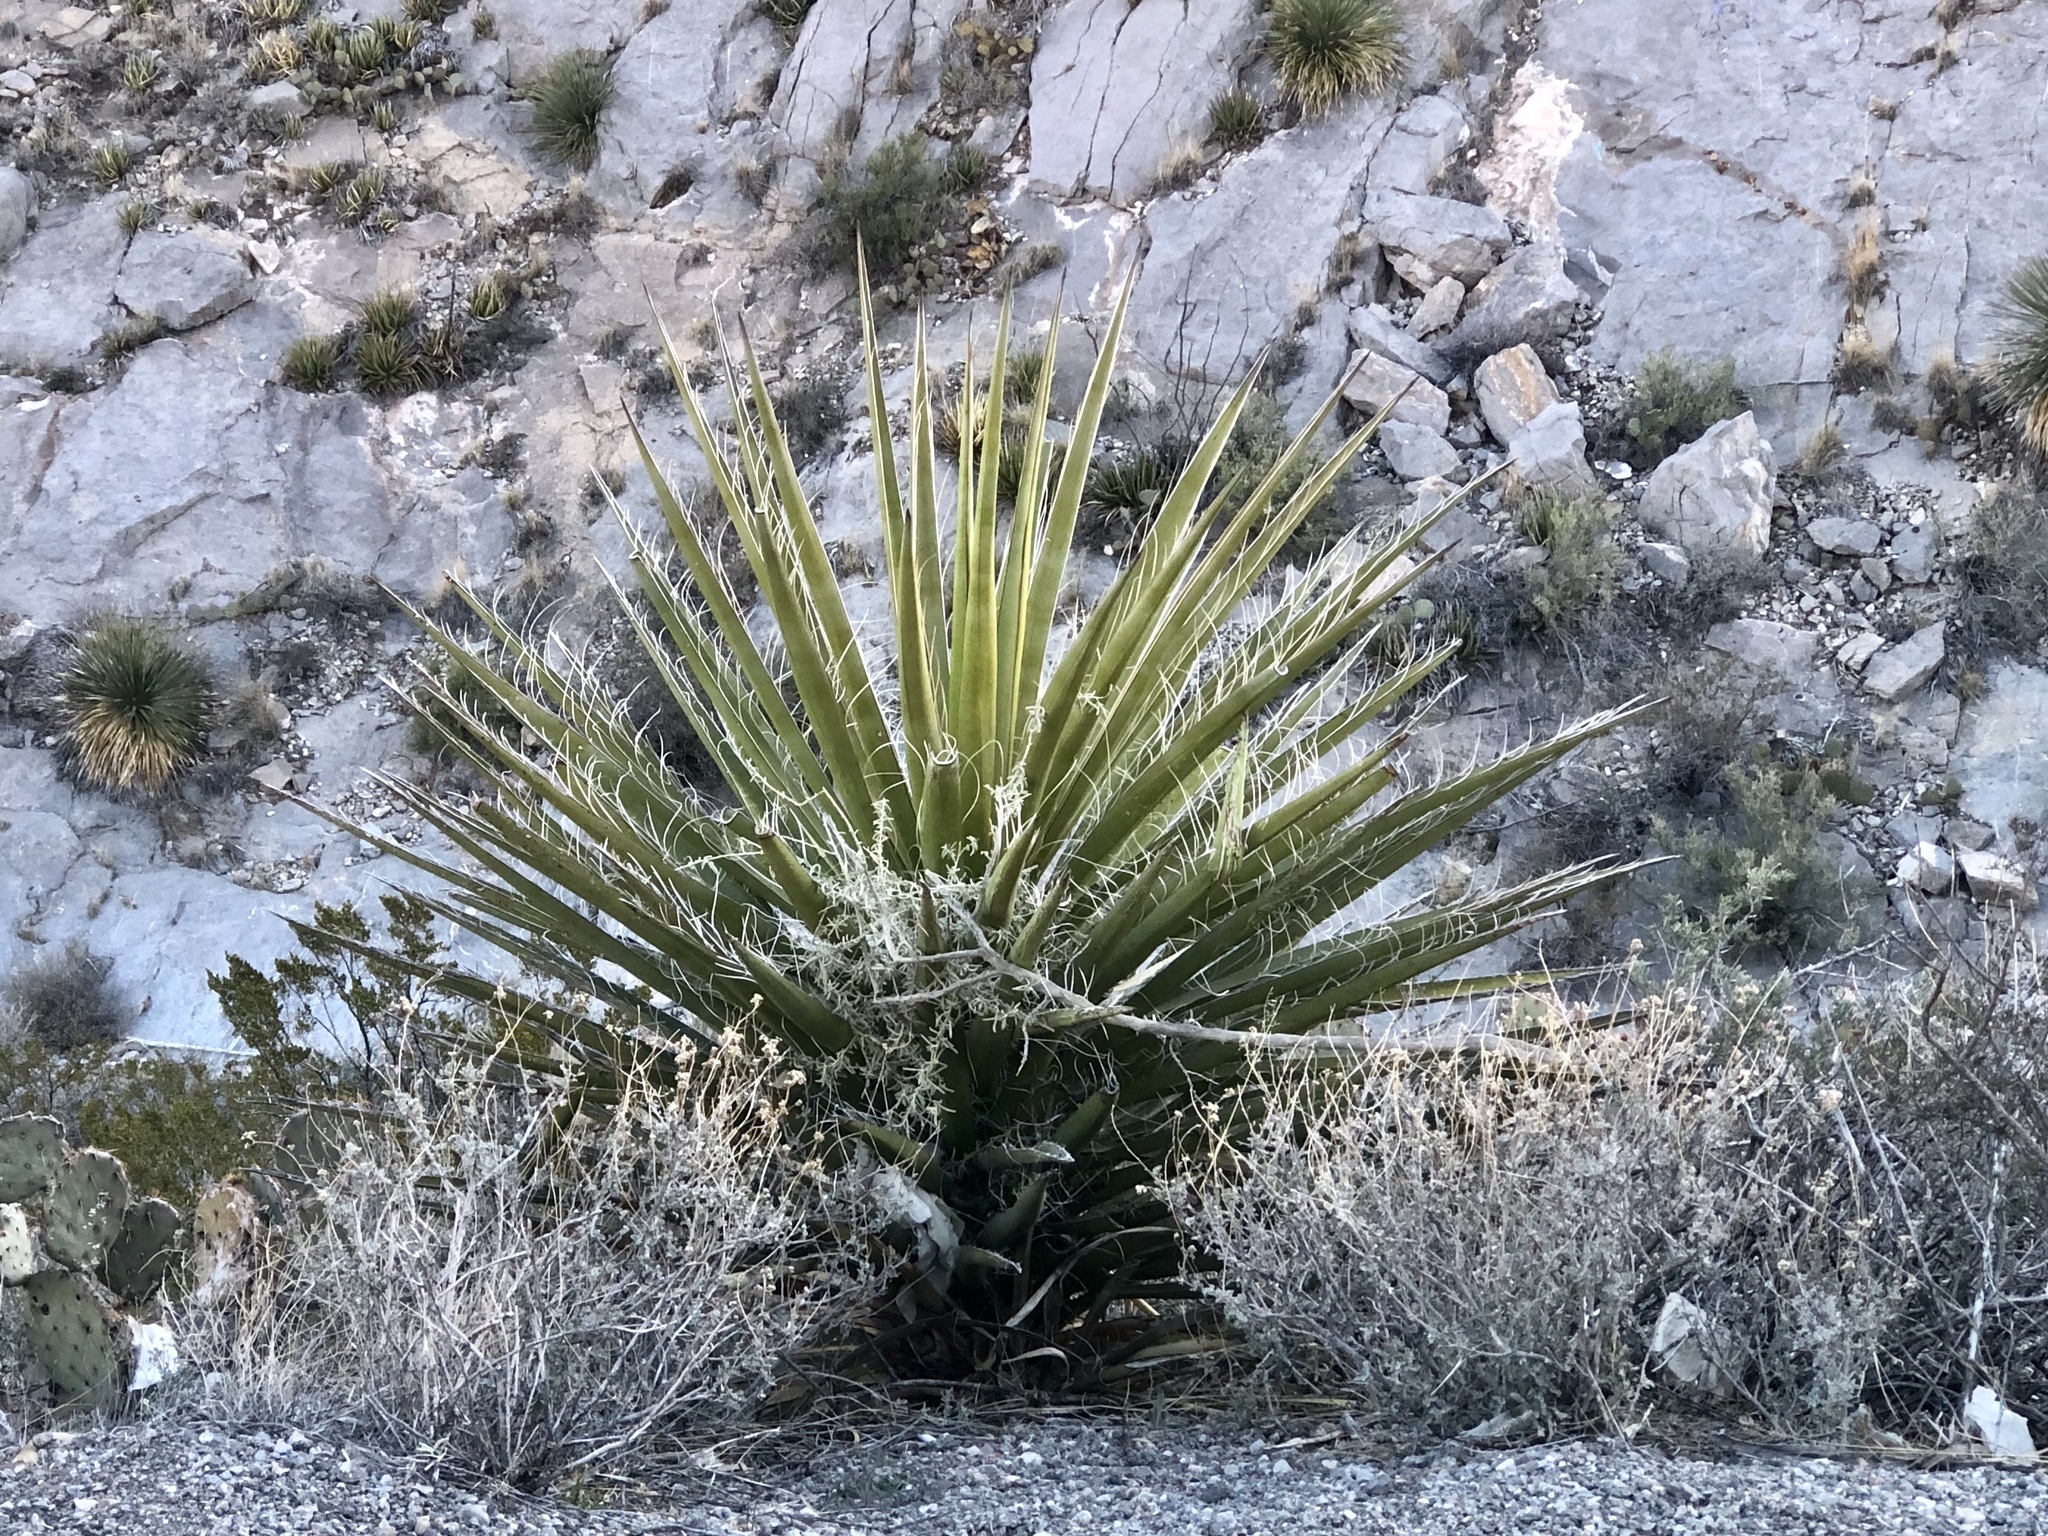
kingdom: Plantae
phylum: Tracheophyta
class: Liliopsida
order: Asparagales
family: Asparagaceae
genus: Yucca
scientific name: Yucca treculiana
